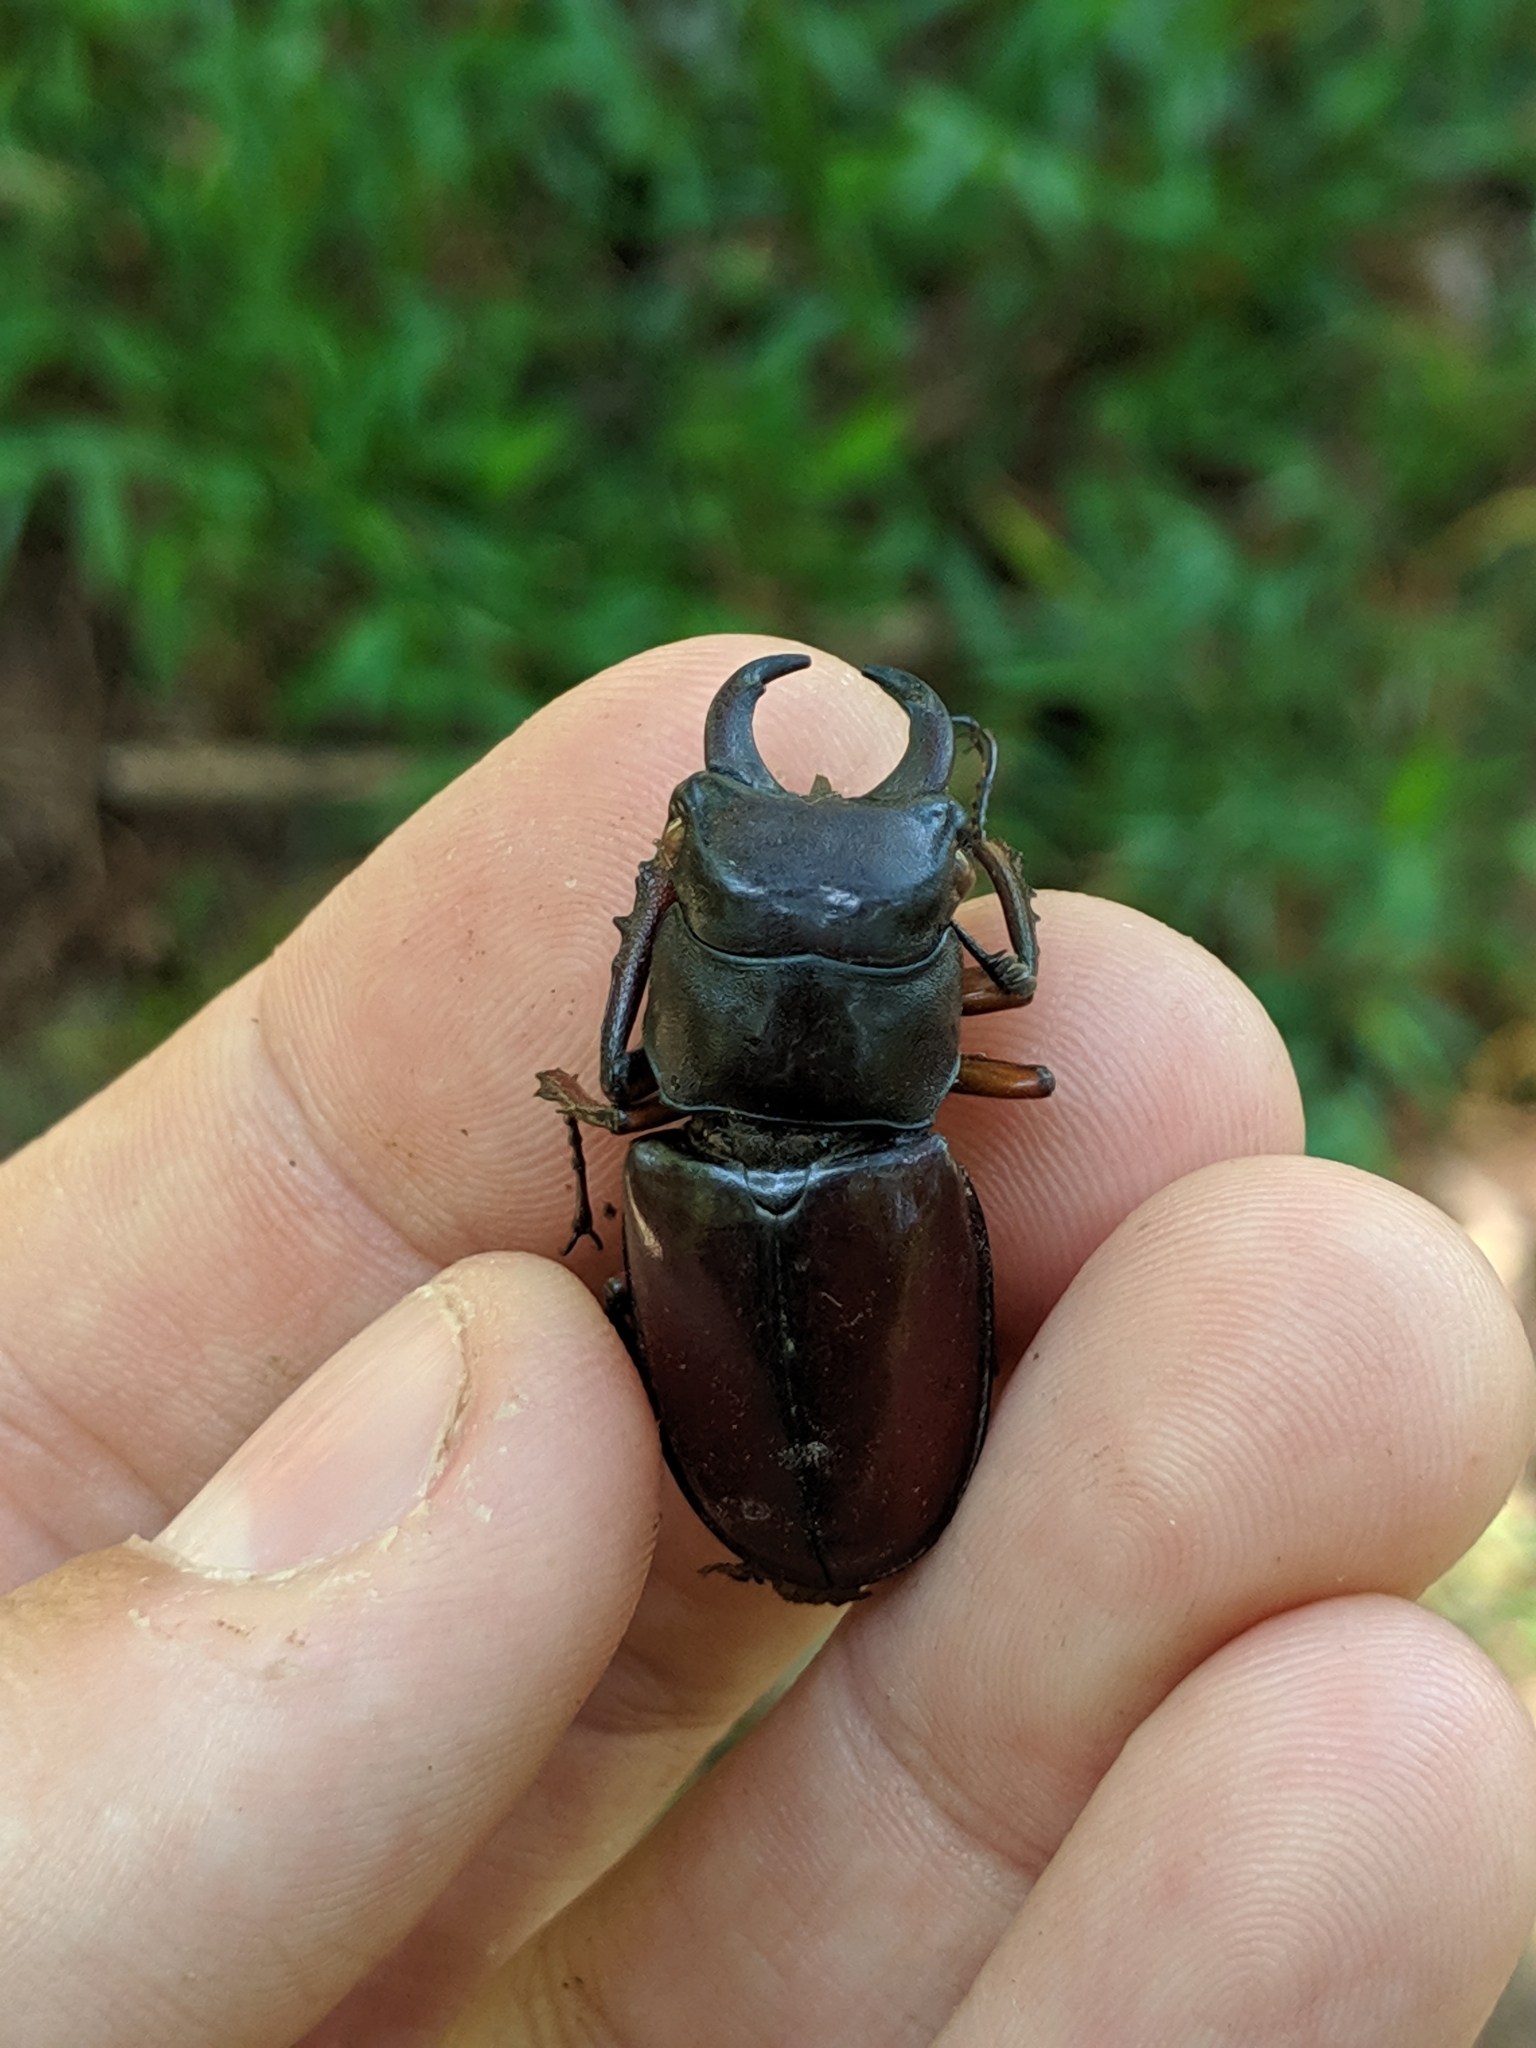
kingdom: Animalia
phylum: Arthropoda
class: Insecta
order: Coleoptera
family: Lucanidae
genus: Lucanus
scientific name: Lucanus capreolus
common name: Stag beetle
